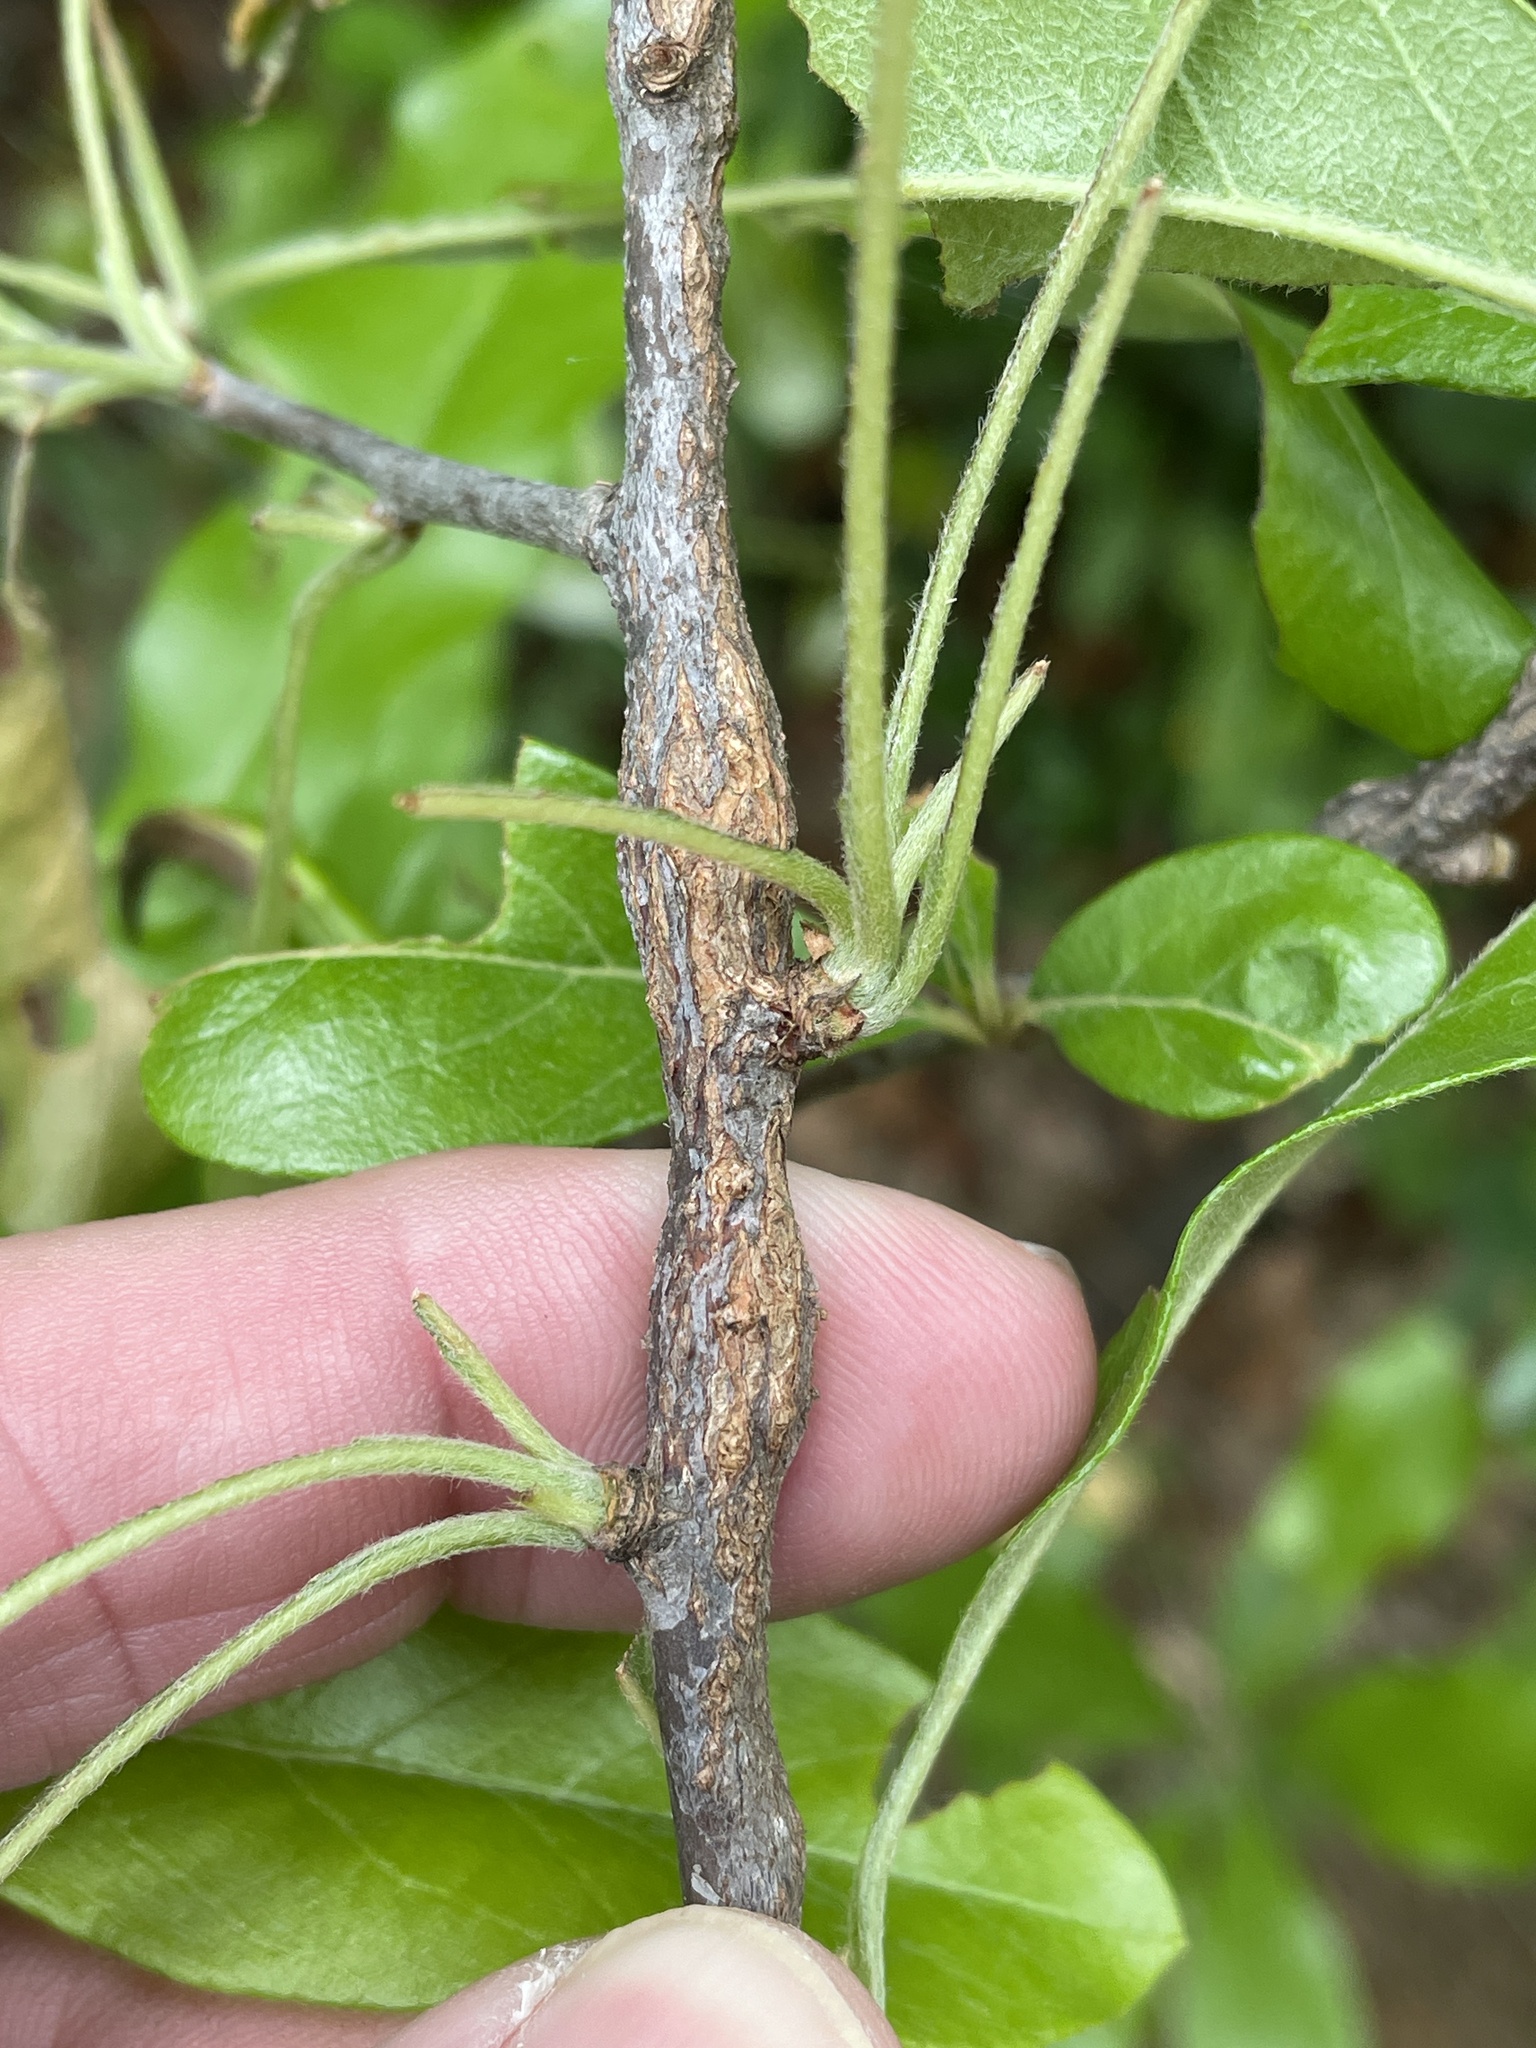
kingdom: Animalia
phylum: Arthropoda
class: Insecta
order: Diptera
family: Cecidomyiidae
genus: Bruggmanniella
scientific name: Bruggmanniella bumeliae
